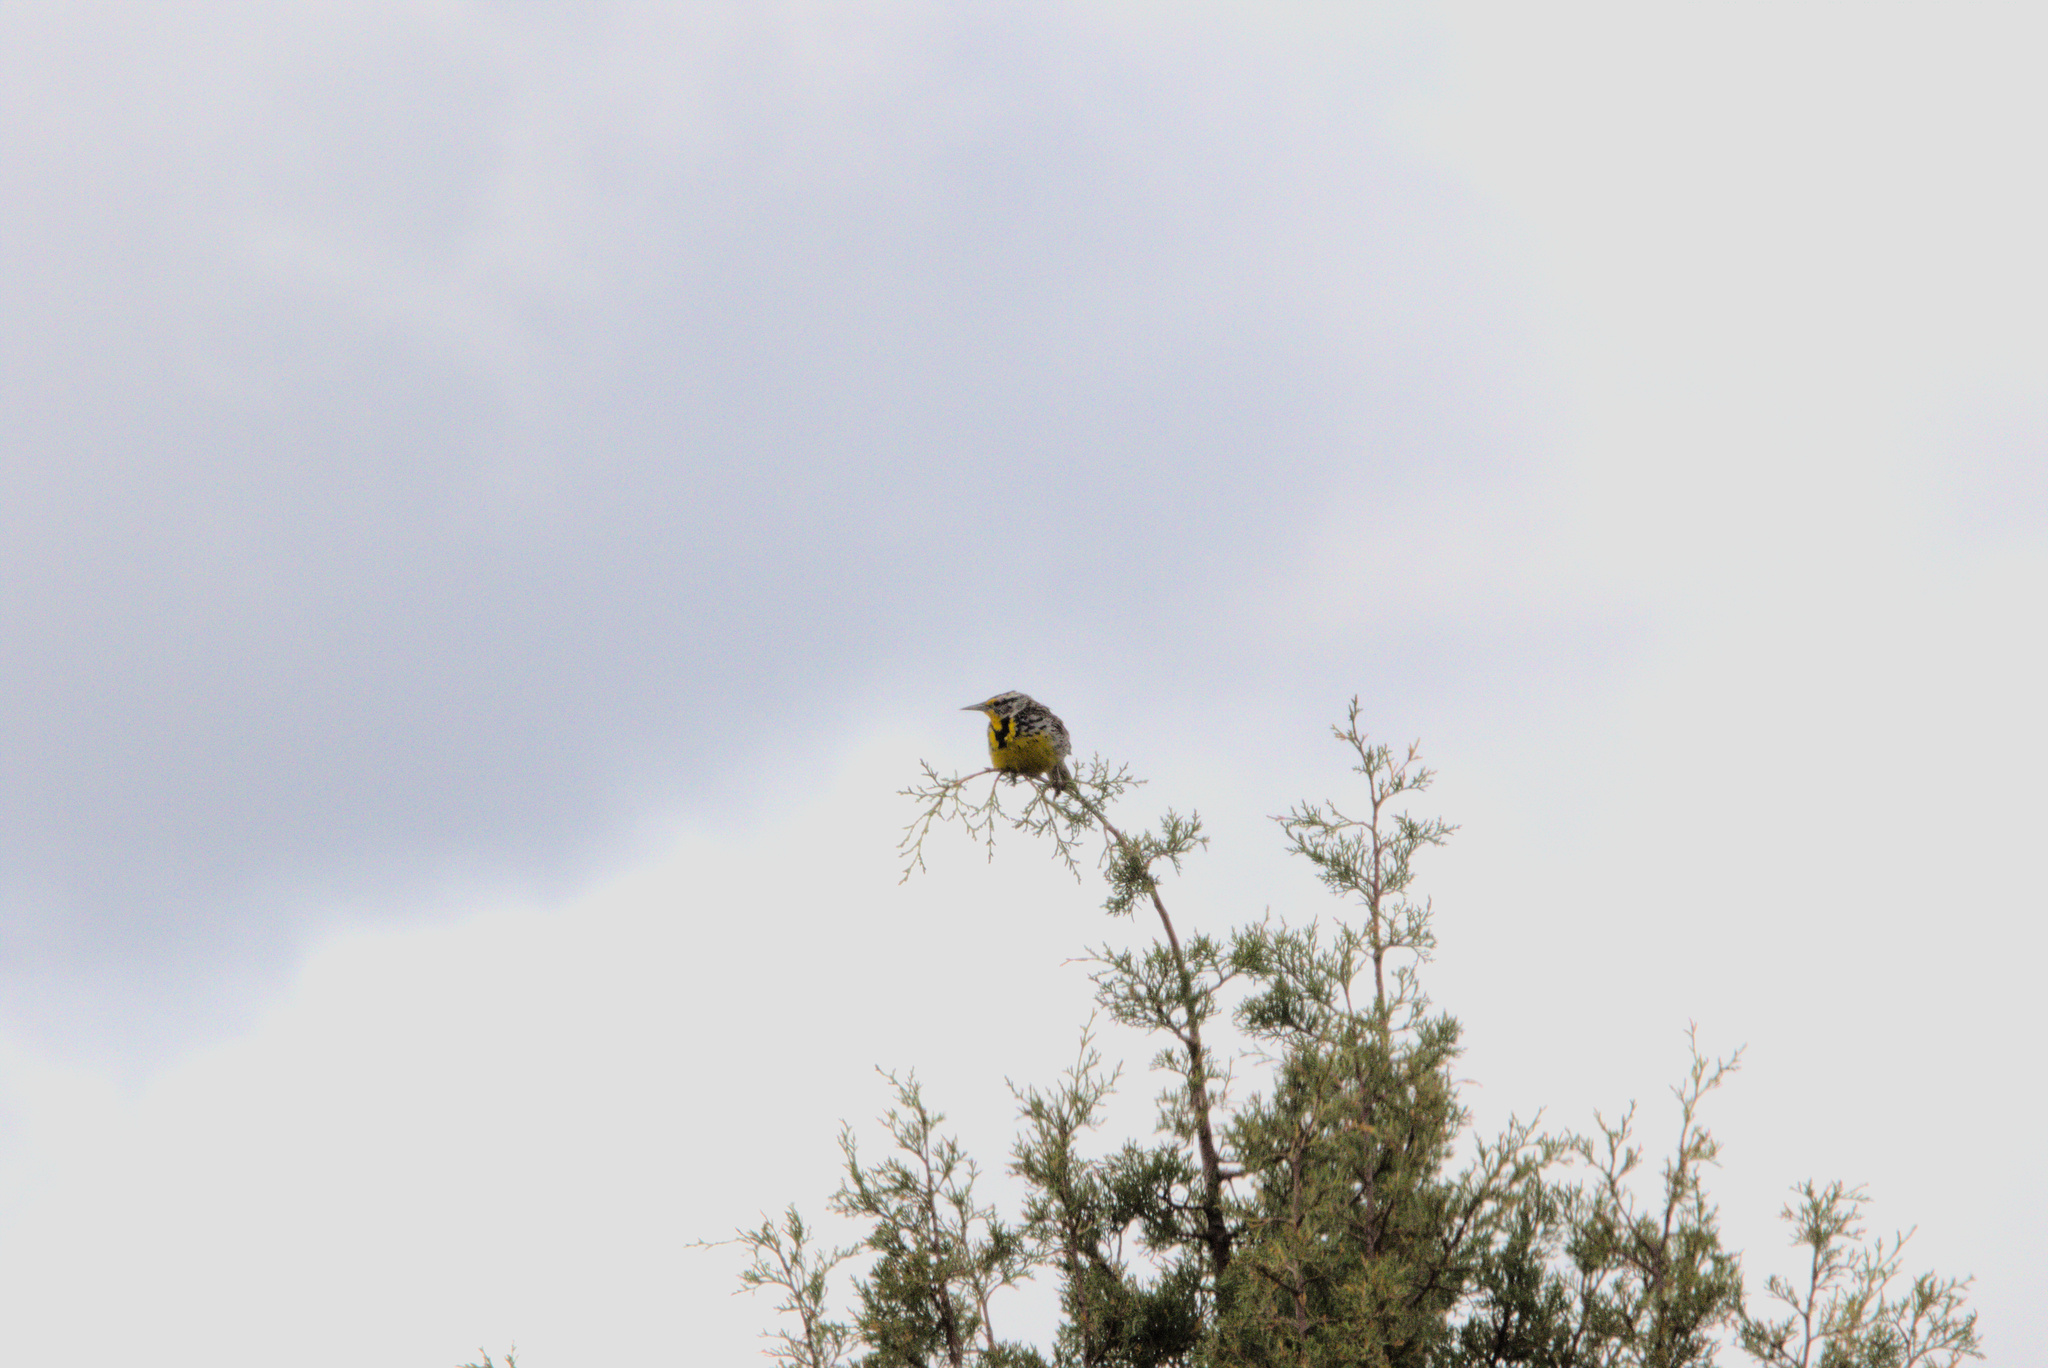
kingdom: Animalia
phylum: Chordata
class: Aves
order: Passeriformes
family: Icteridae
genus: Sturnella
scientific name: Sturnella neglecta
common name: Western meadowlark
